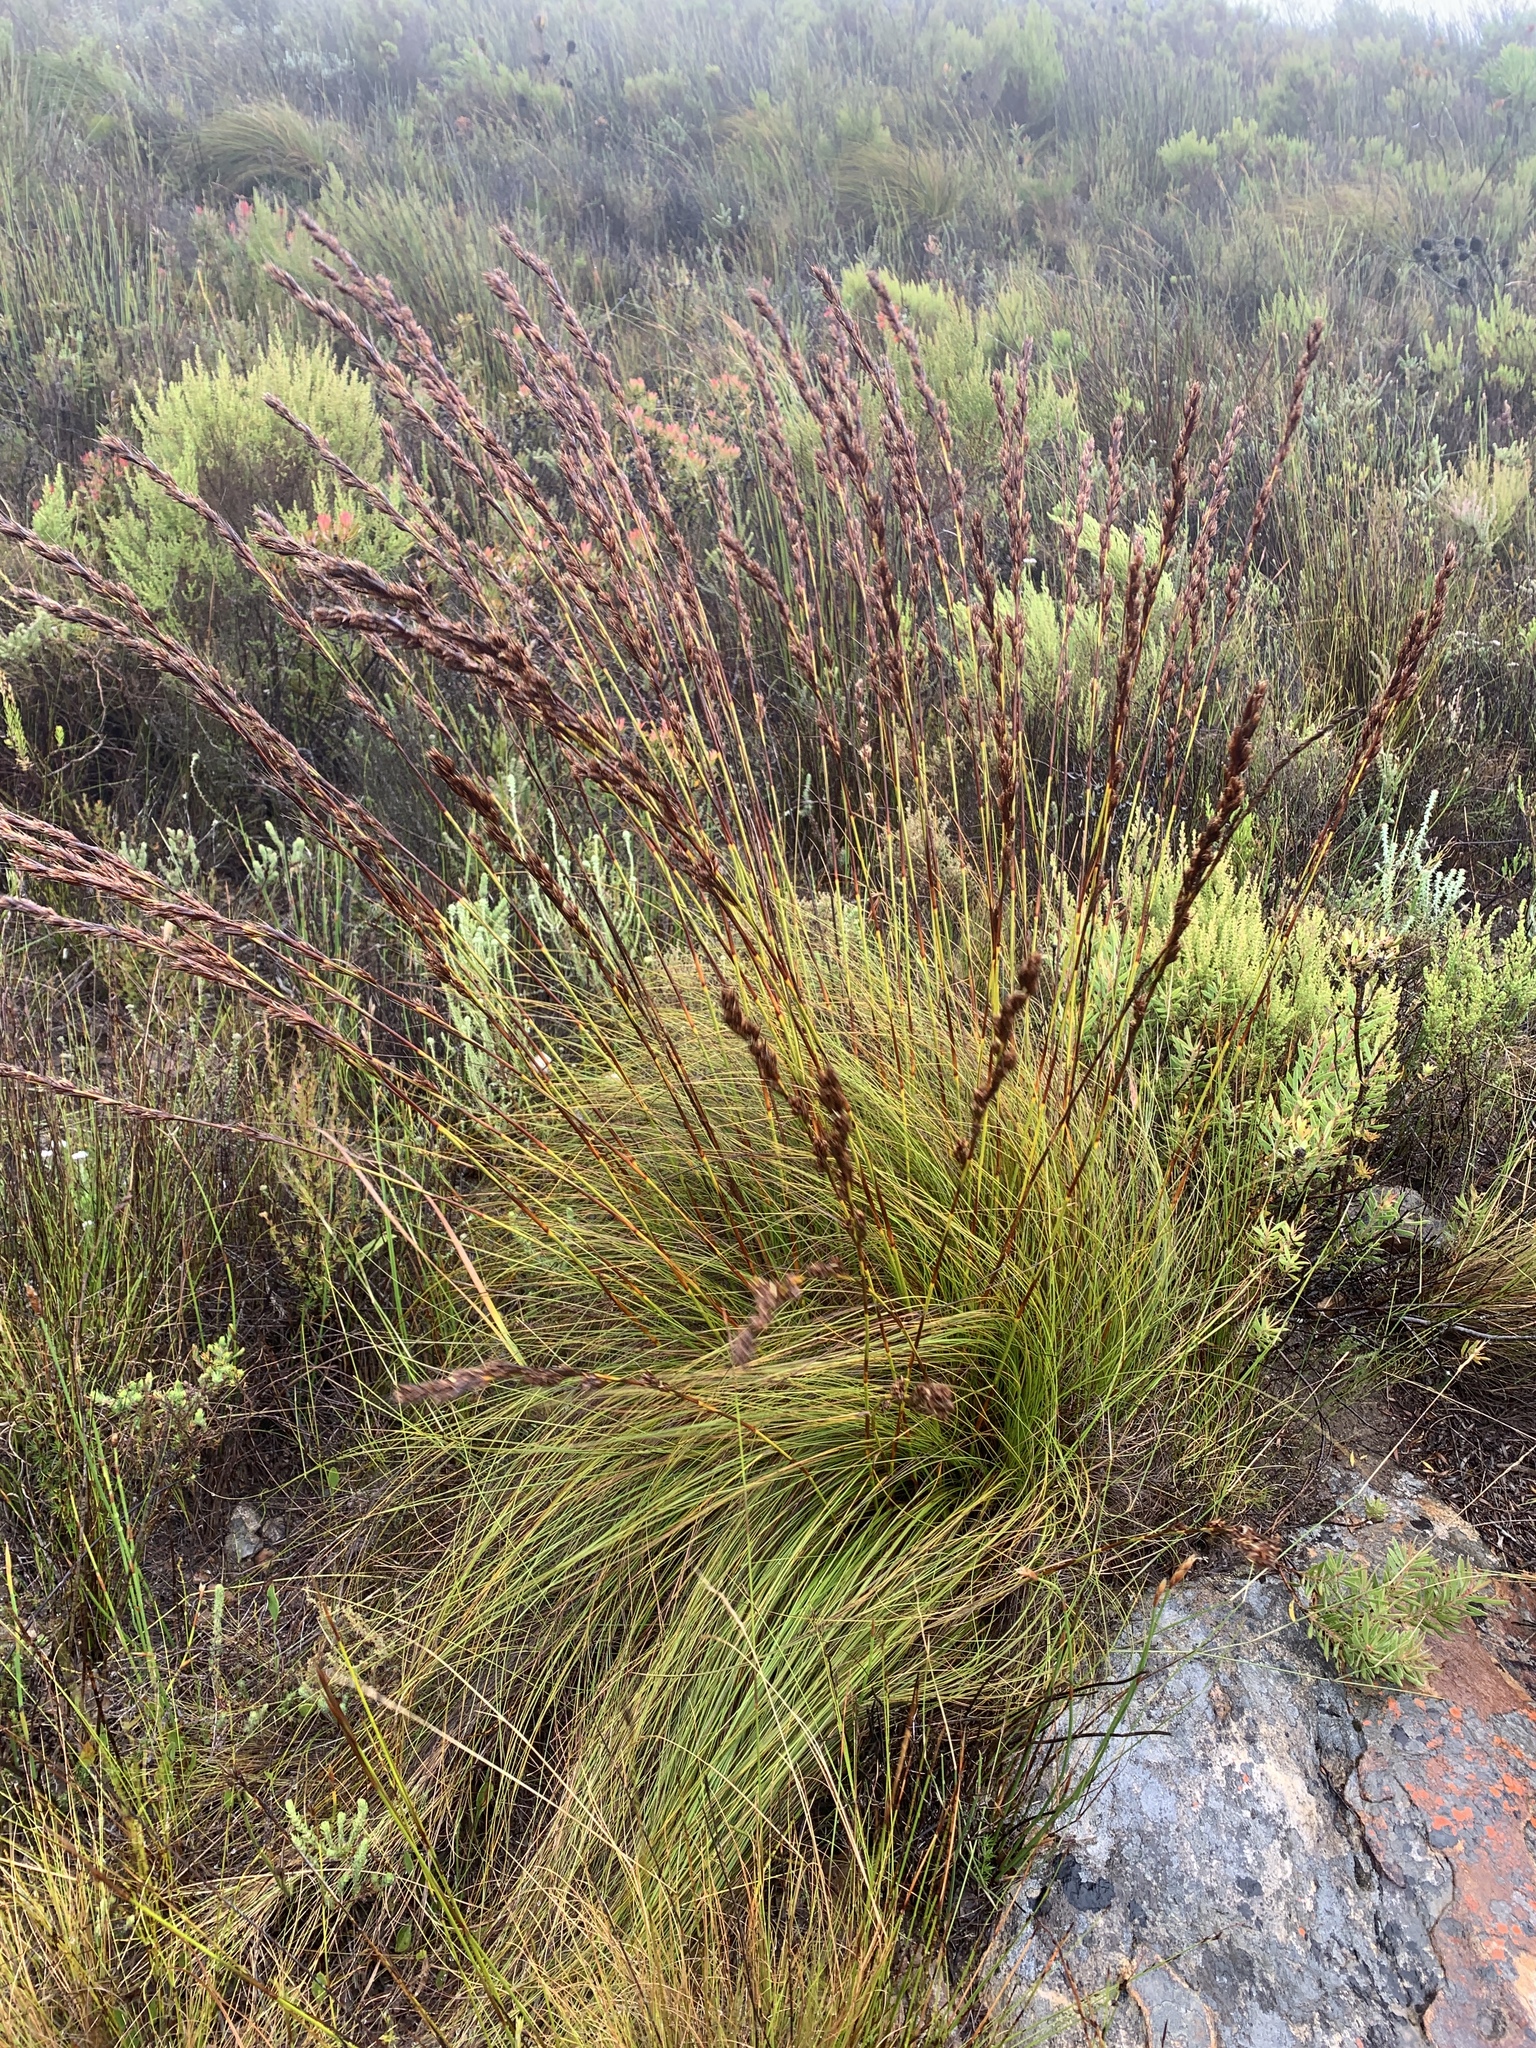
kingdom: Plantae
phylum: Tracheophyta
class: Liliopsida
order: Poales
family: Cyperaceae
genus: Tetraria
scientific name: Tetraria ustulata
